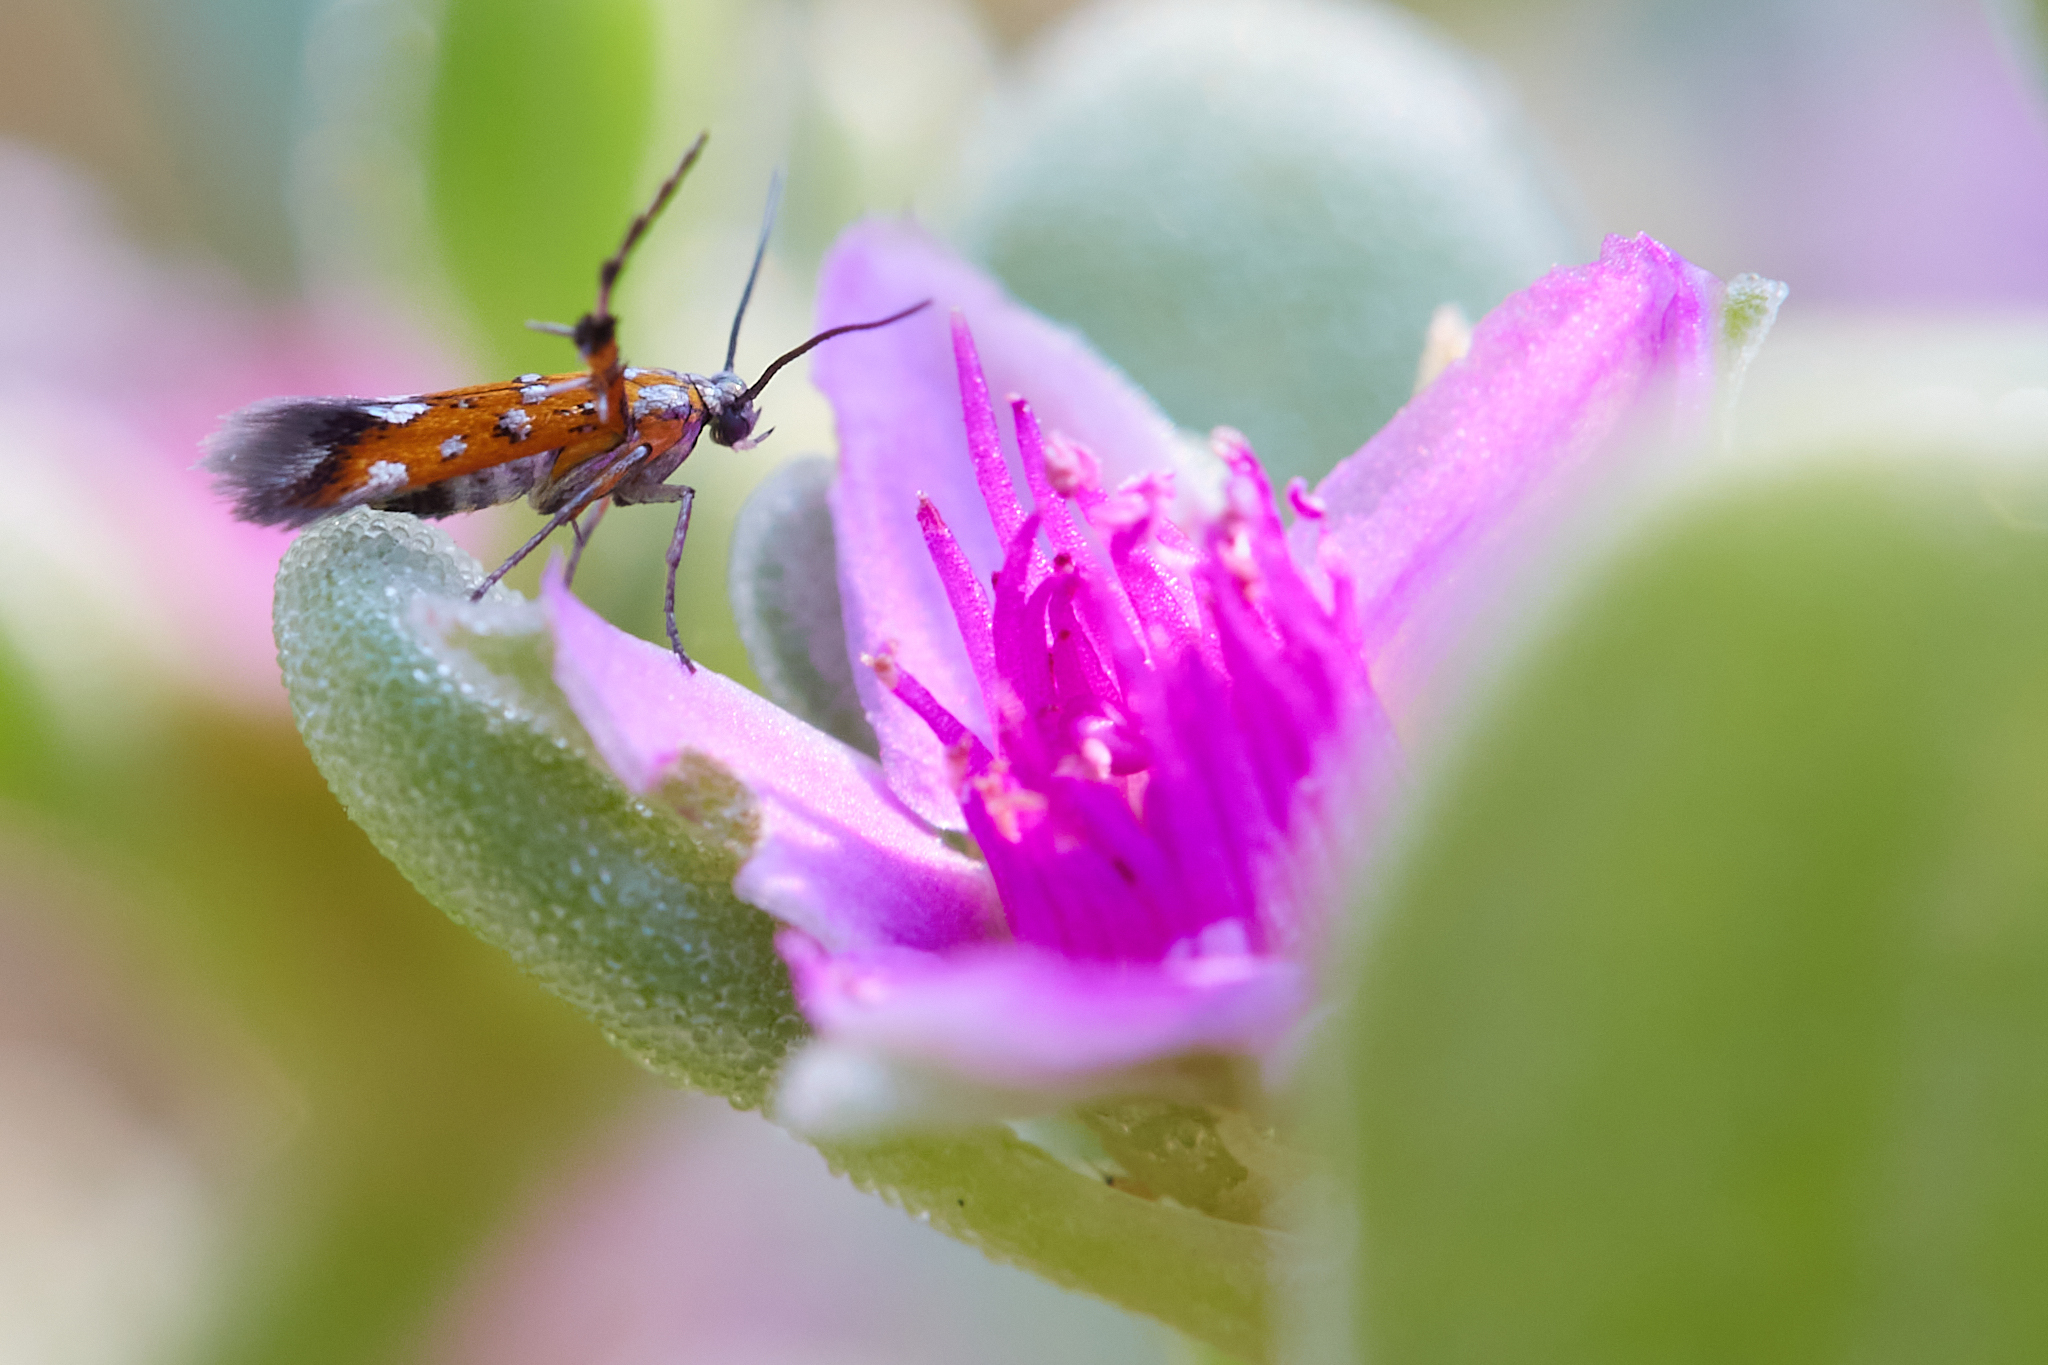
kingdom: Animalia
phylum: Arthropoda
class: Insecta
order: Lepidoptera
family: Heliodinidae
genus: Heliodines
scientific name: Heliodines
